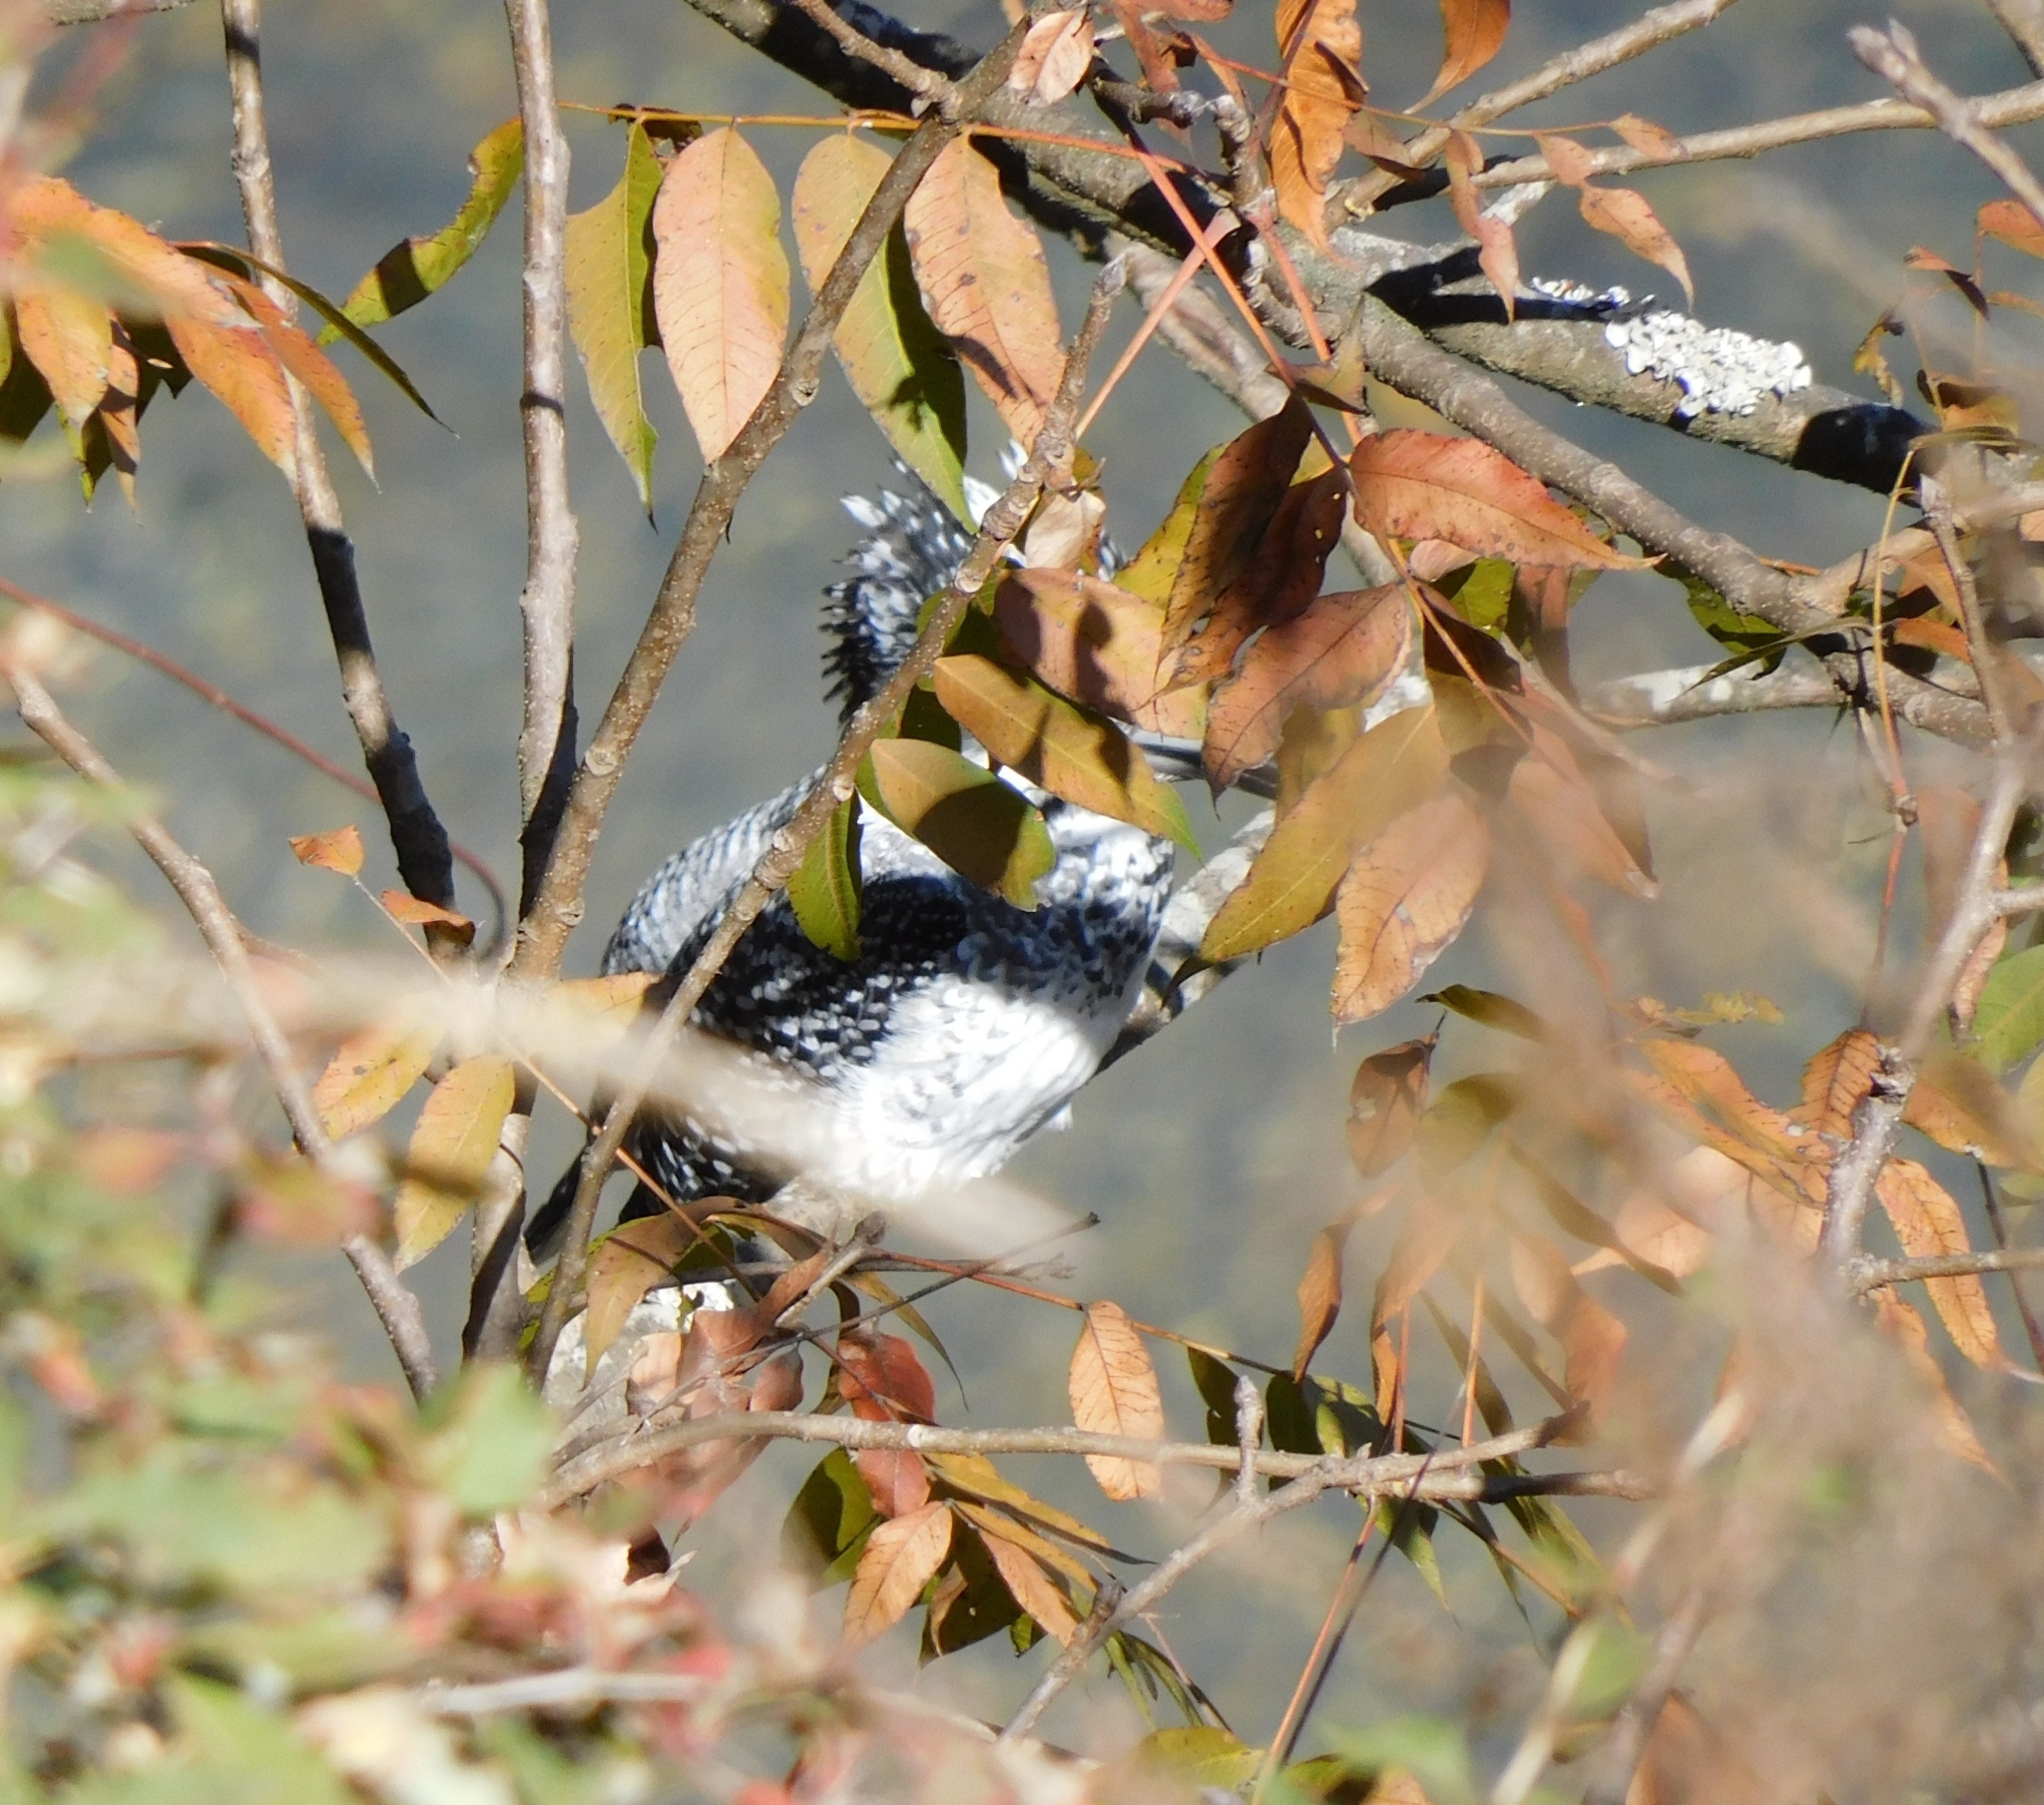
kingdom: Animalia
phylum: Chordata
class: Aves
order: Coraciiformes
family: Alcedinidae
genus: Megaceryle
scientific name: Megaceryle lugubris
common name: Crested kingfisher
